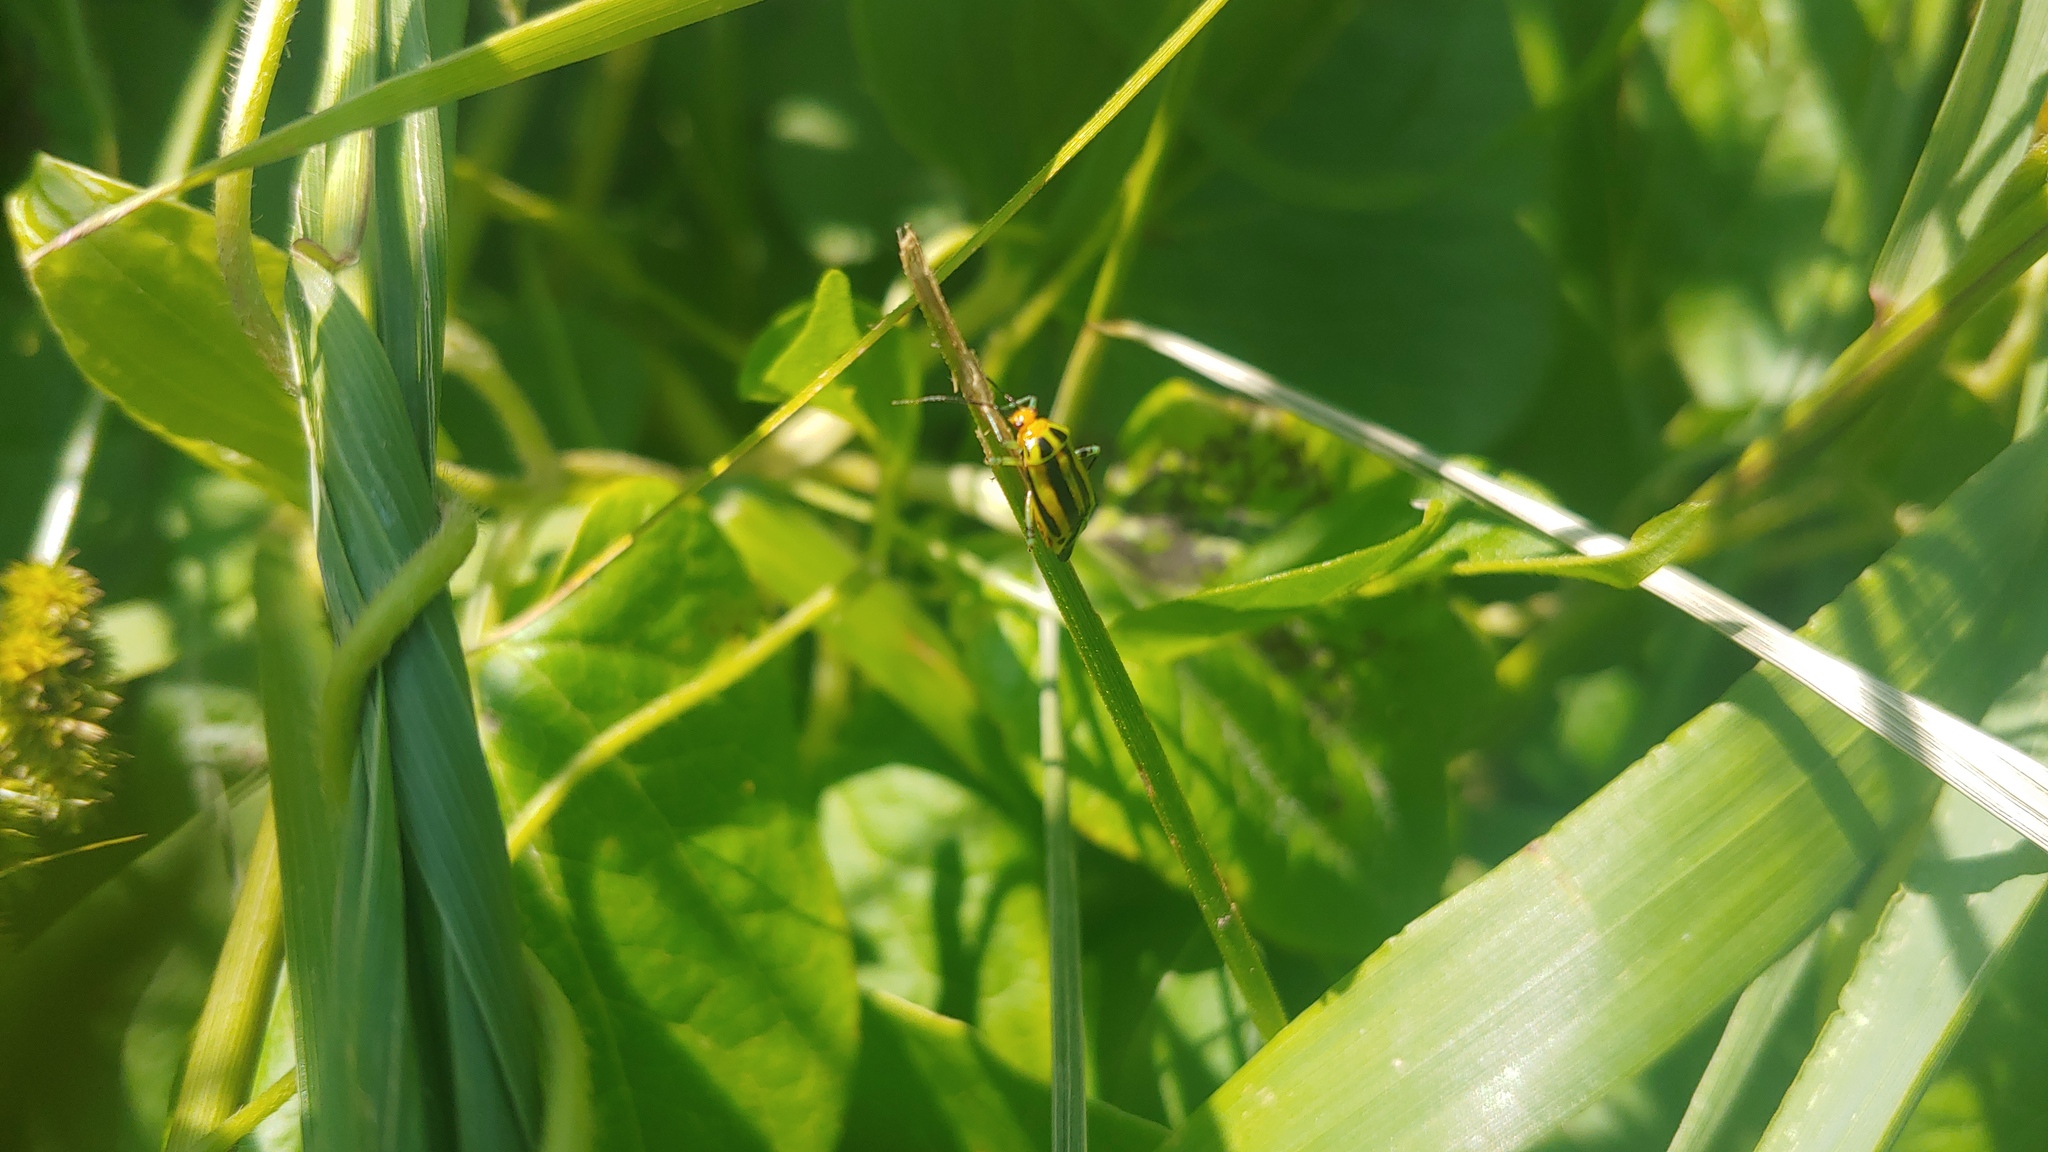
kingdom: Animalia
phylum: Arthropoda
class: Insecta
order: Hemiptera
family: Miridae
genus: Poecilocapsus
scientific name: Poecilocapsus lineatus
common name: Four-lined plant bug
